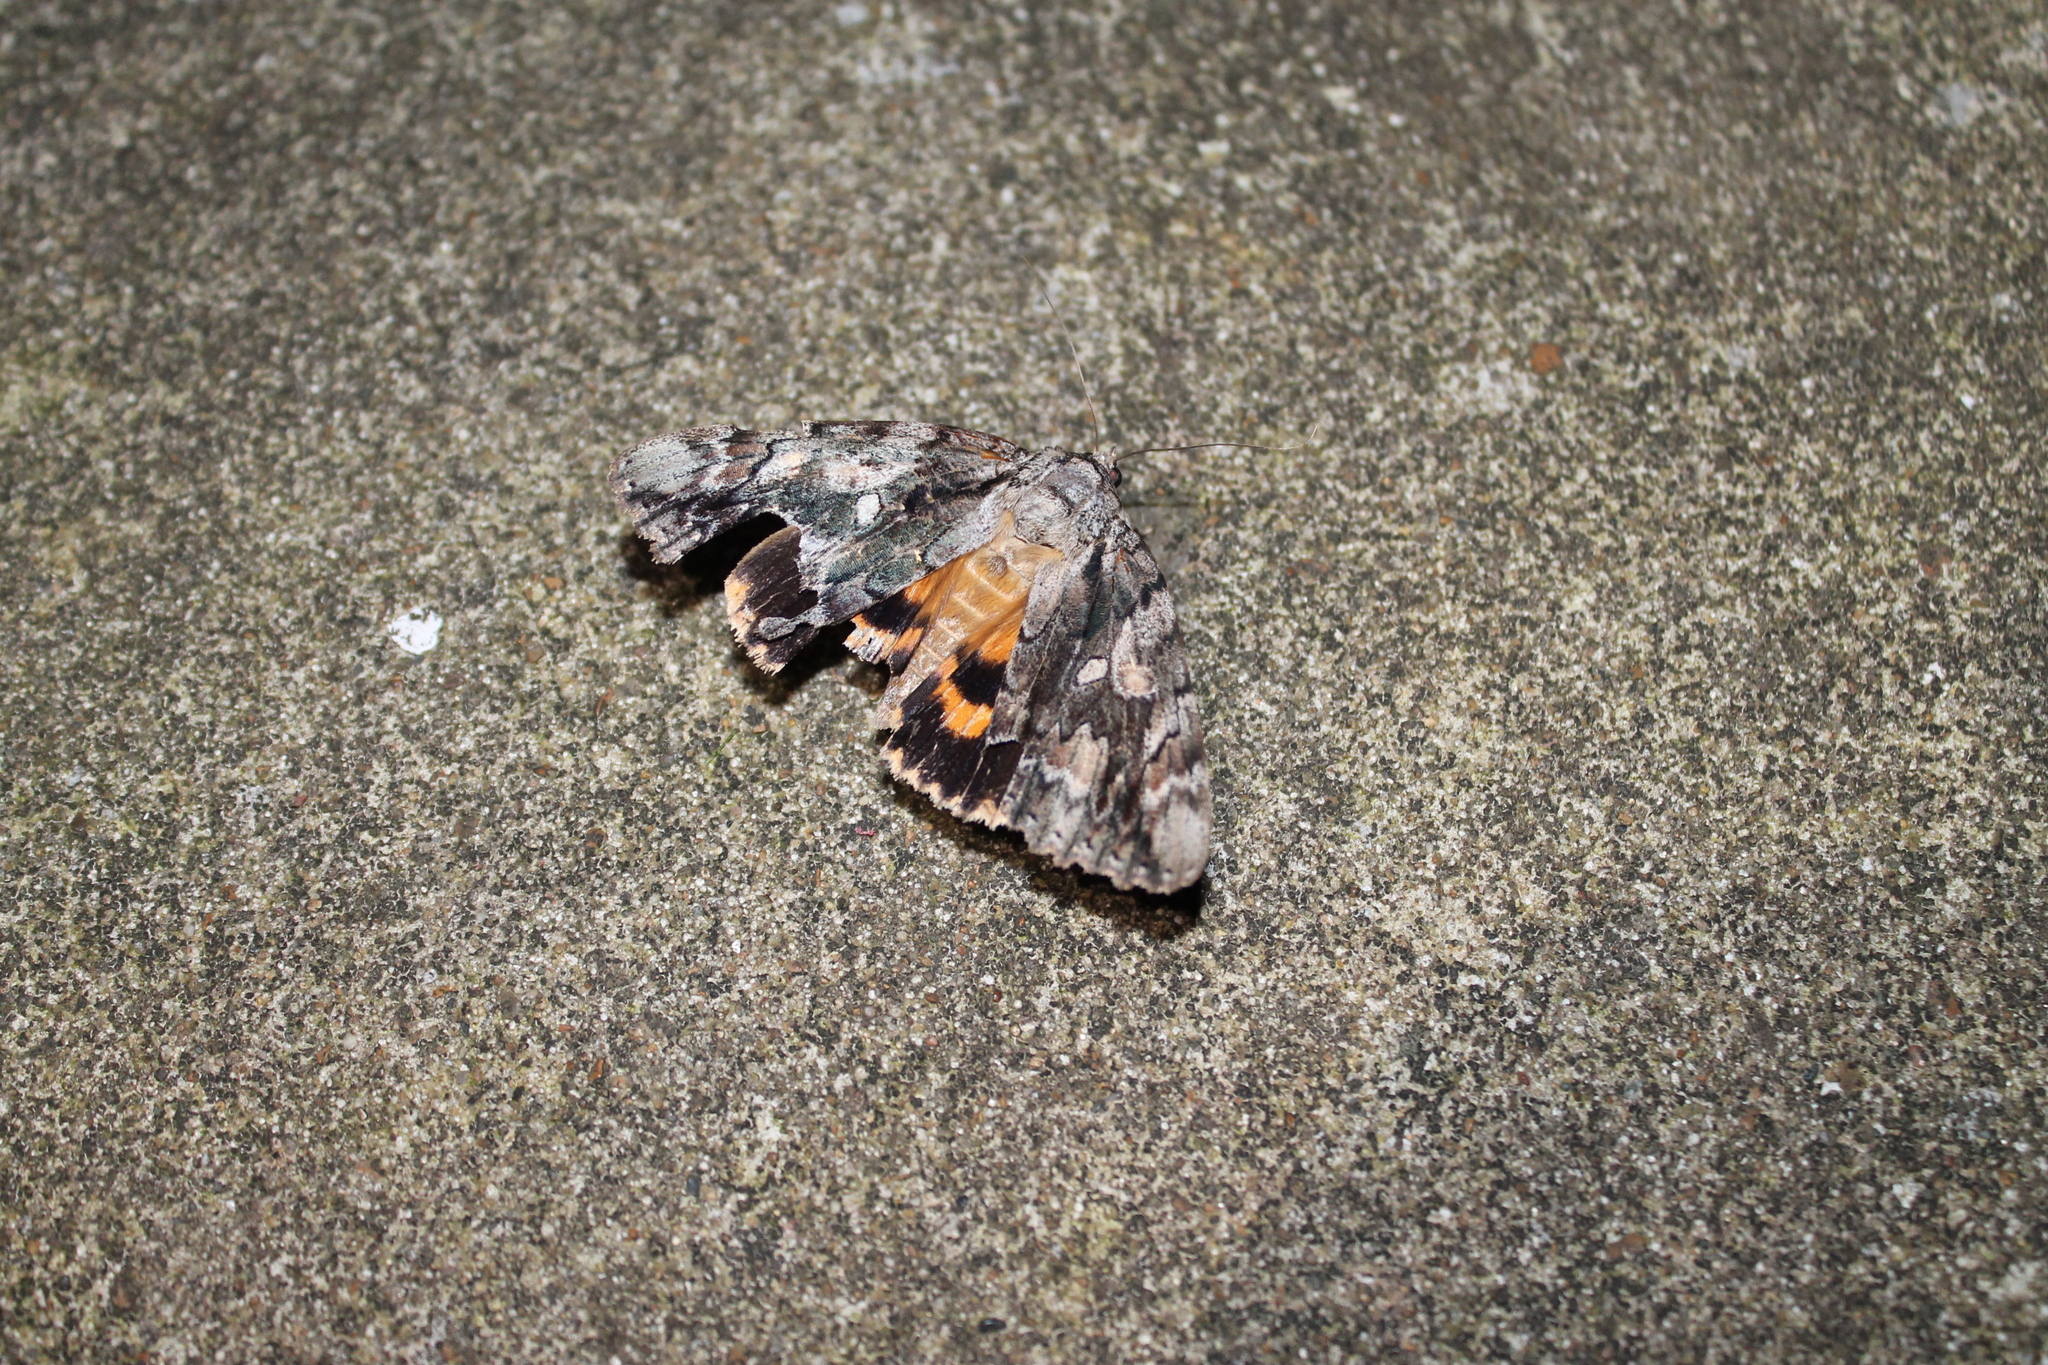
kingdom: Animalia
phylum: Arthropoda
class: Insecta
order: Lepidoptera
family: Erebidae
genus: Catocala
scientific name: Catocala neogama
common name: Bride underwing
